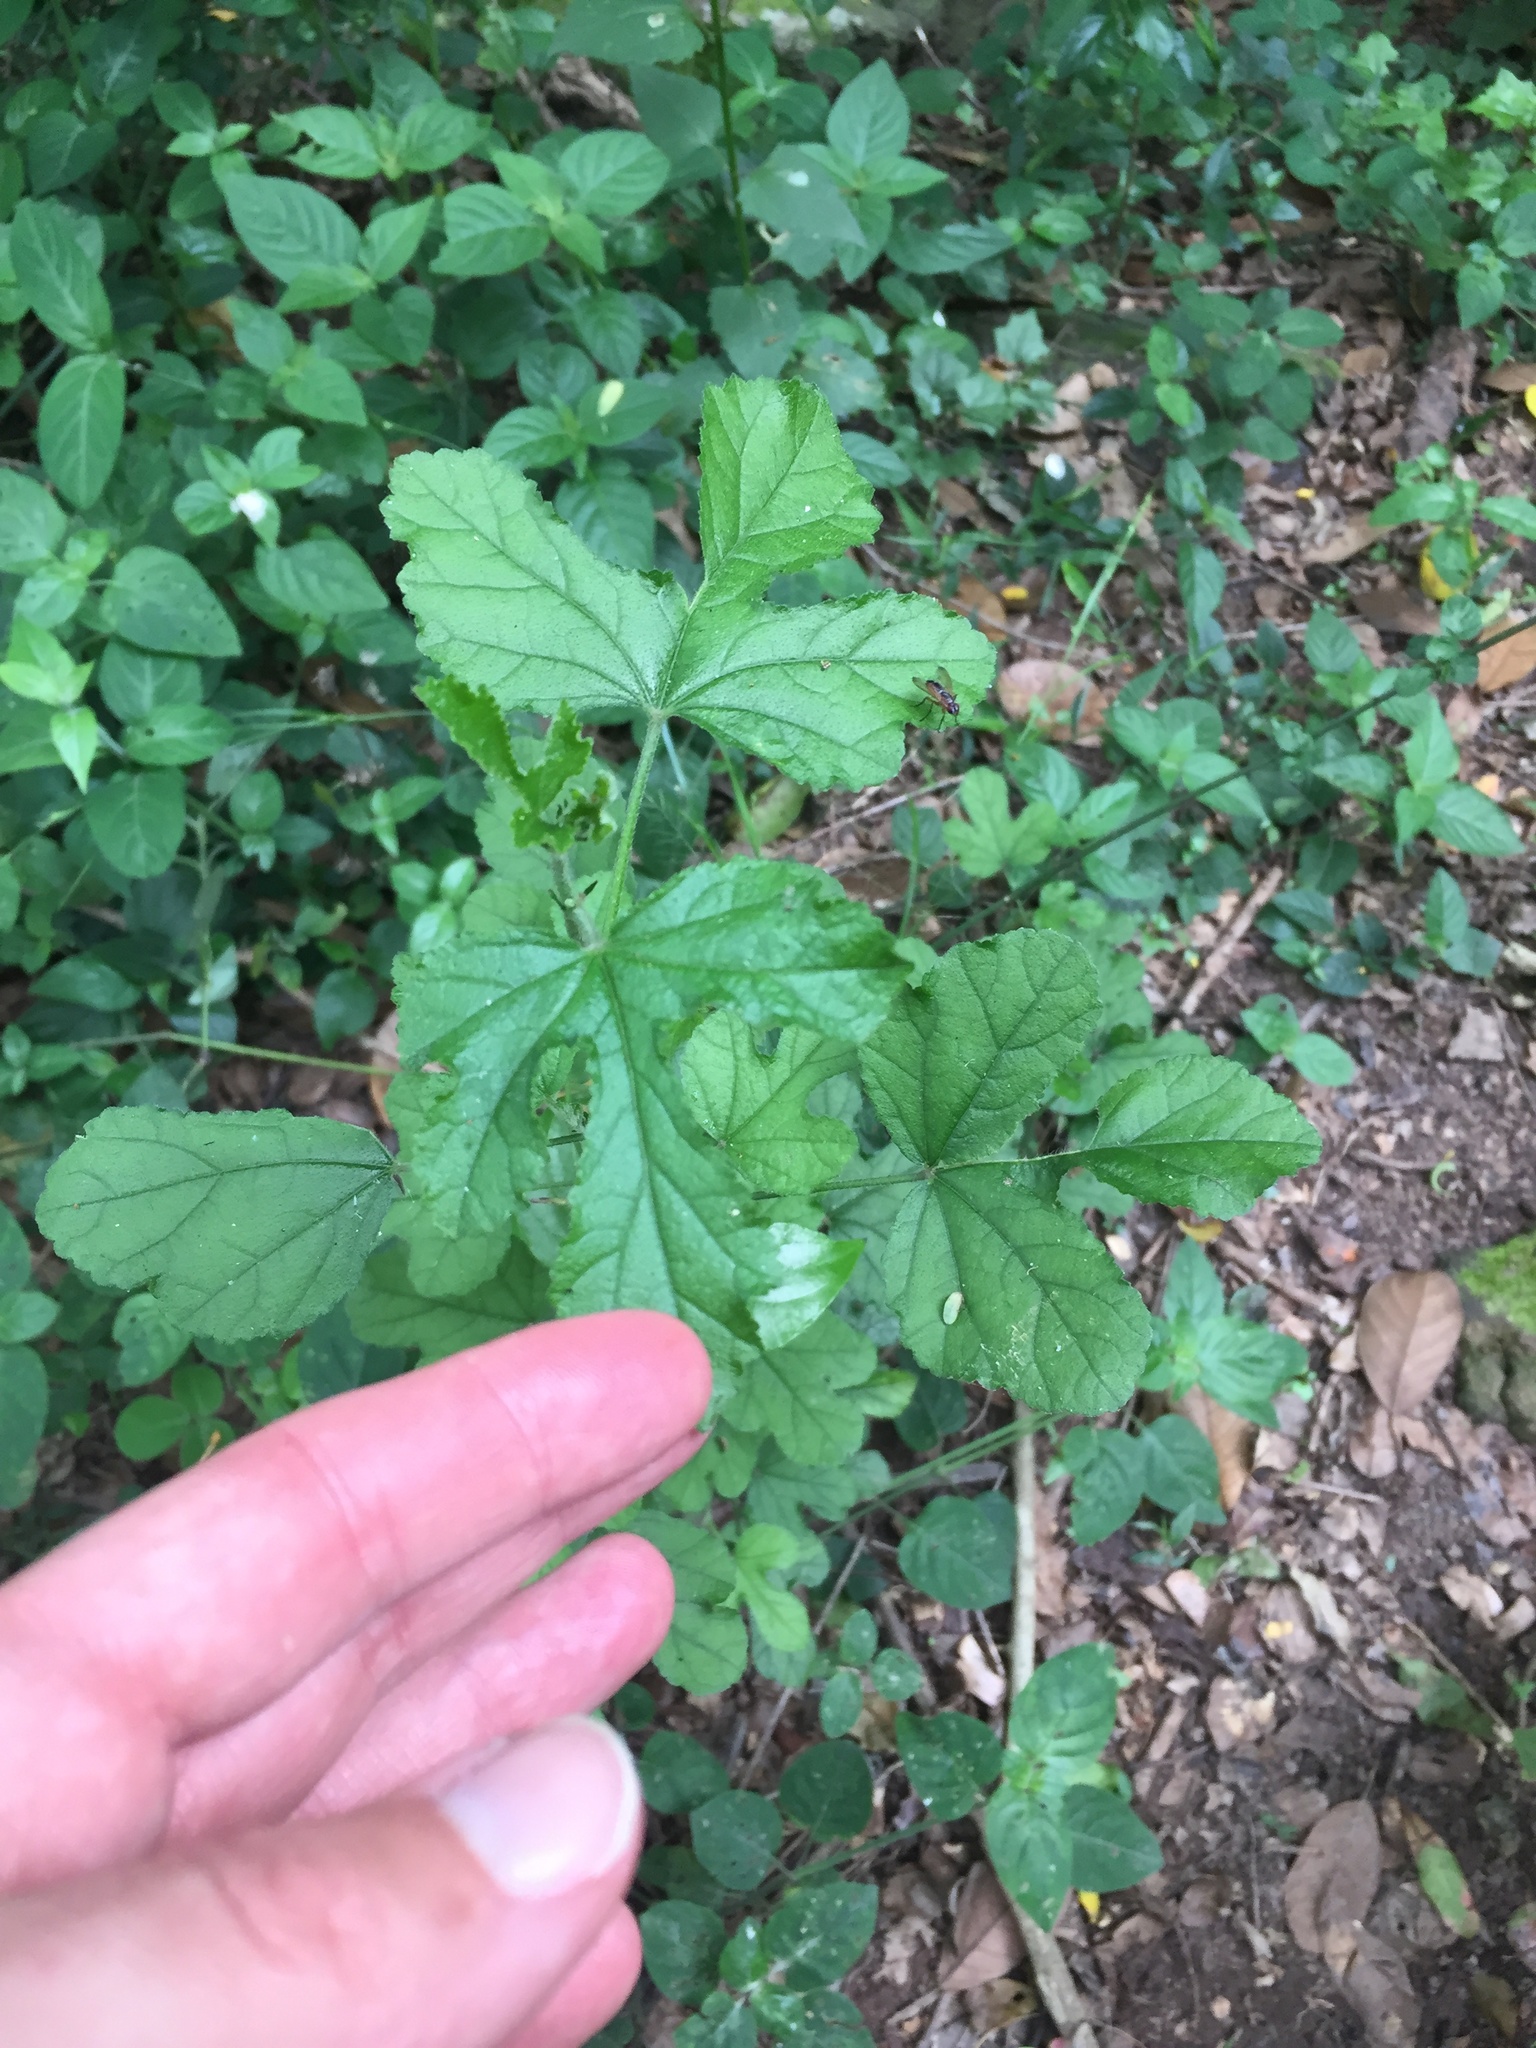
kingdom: Plantae
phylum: Tracheophyta
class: Magnoliopsida
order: Malvales
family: Malvaceae
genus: Hibiscus
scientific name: Hibiscus pedunculatus
